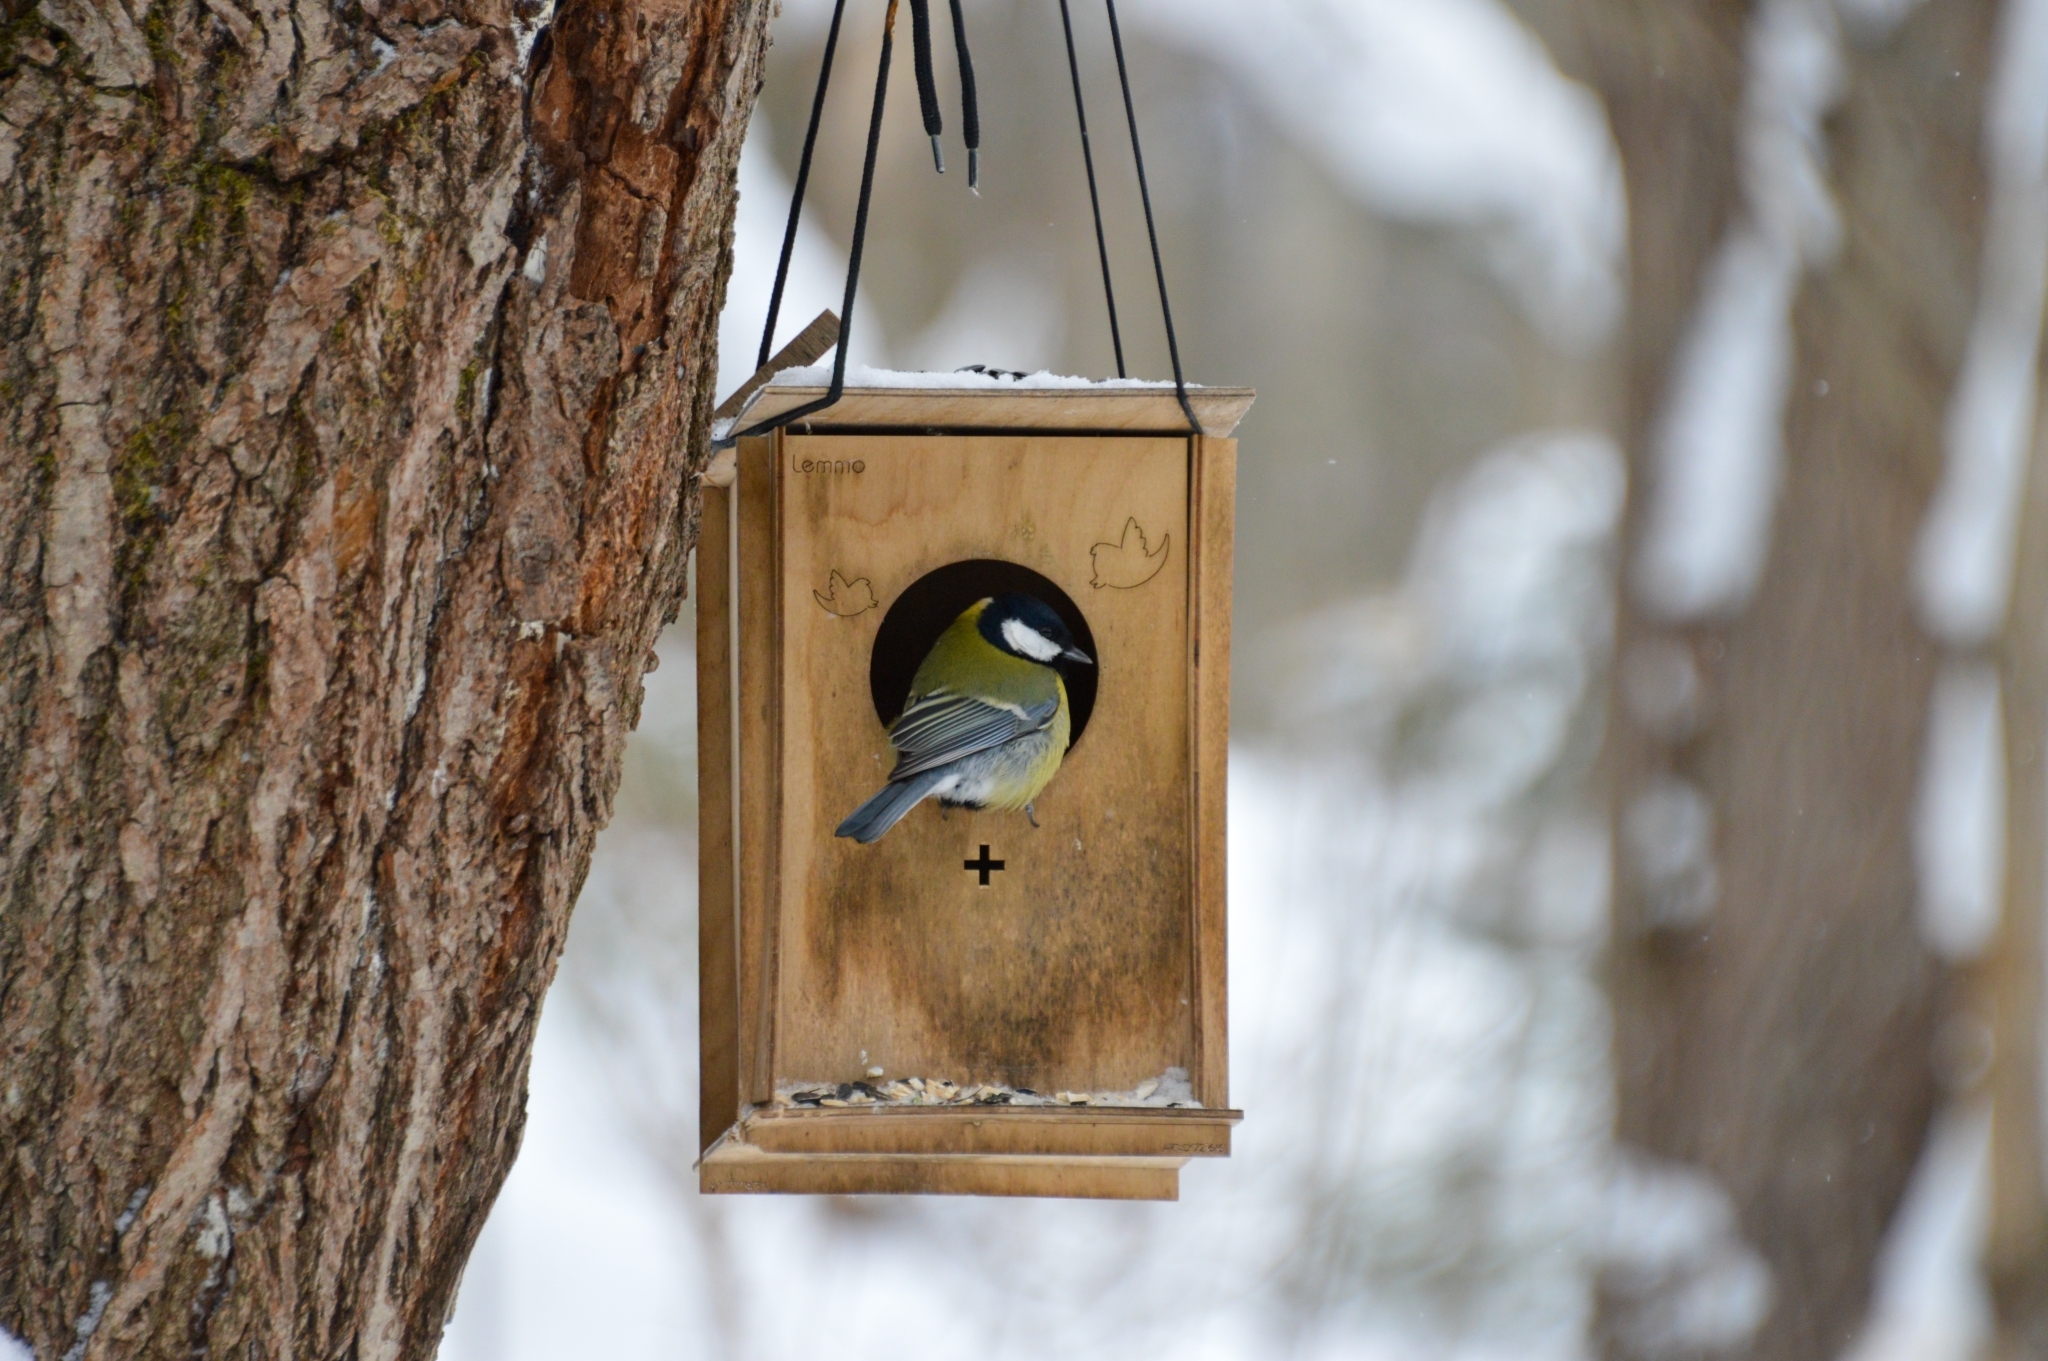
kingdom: Animalia
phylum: Chordata
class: Aves
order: Passeriformes
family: Paridae
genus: Parus
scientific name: Parus major
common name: Great tit
